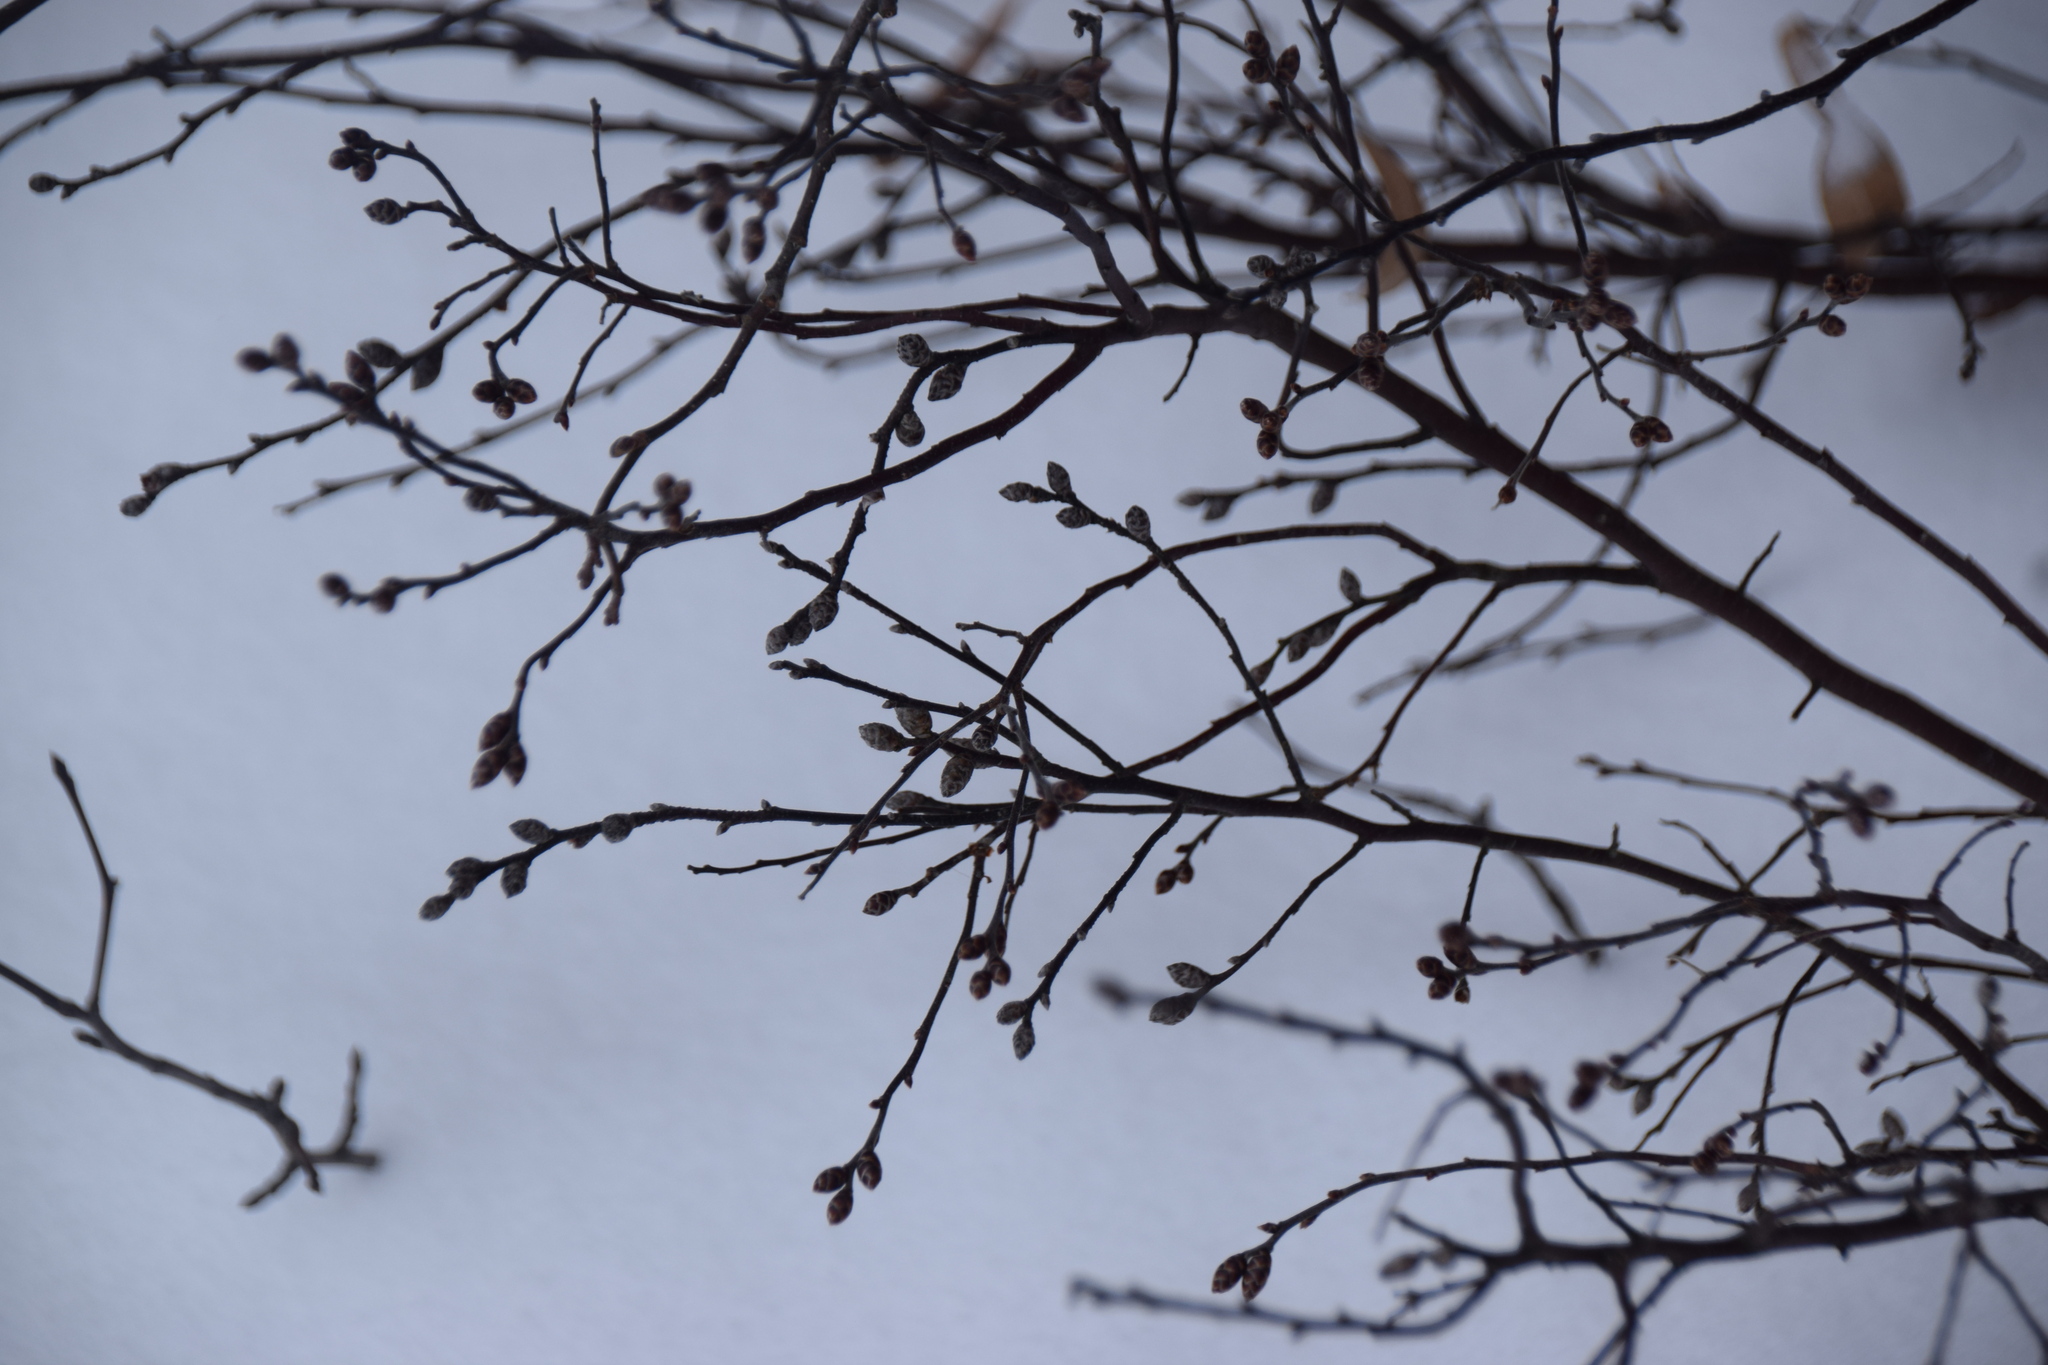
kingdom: Plantae
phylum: Tracheophyta
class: Magnoliopsida
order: Fagales
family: Myricaceae
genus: Myrica
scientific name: Myrica gale
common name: Sweet gale
